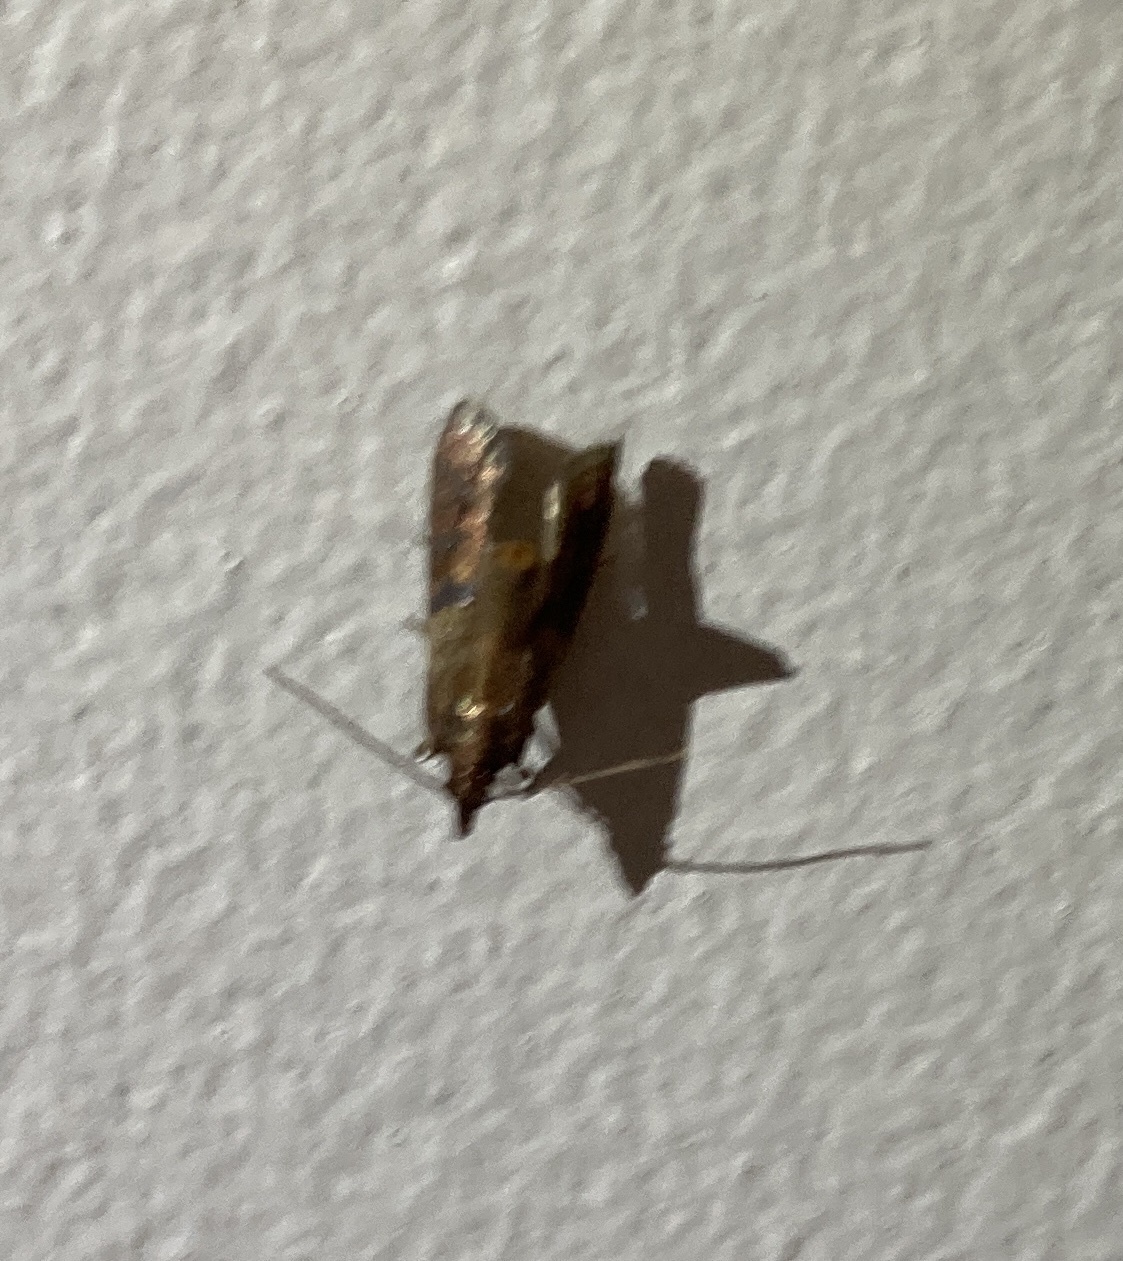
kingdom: Animalia
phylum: Arthropoda
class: Insecta
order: Lepidoptera
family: Pyralidae
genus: Plodia
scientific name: Plodia interpunctella
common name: Indian meal moth
